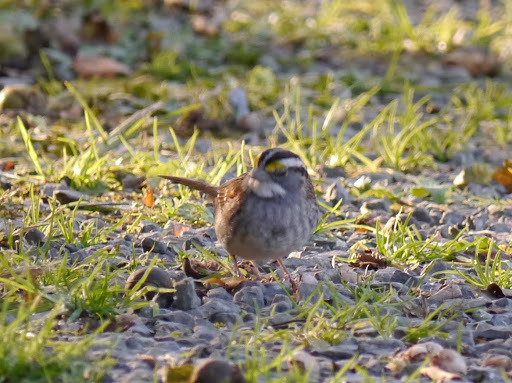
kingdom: Animalia
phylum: Chordata
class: Aves
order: Passeriformes
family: Passerellidae
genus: Zonotrichia
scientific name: Zonotrichia albicollis
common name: White-throated sparrow
